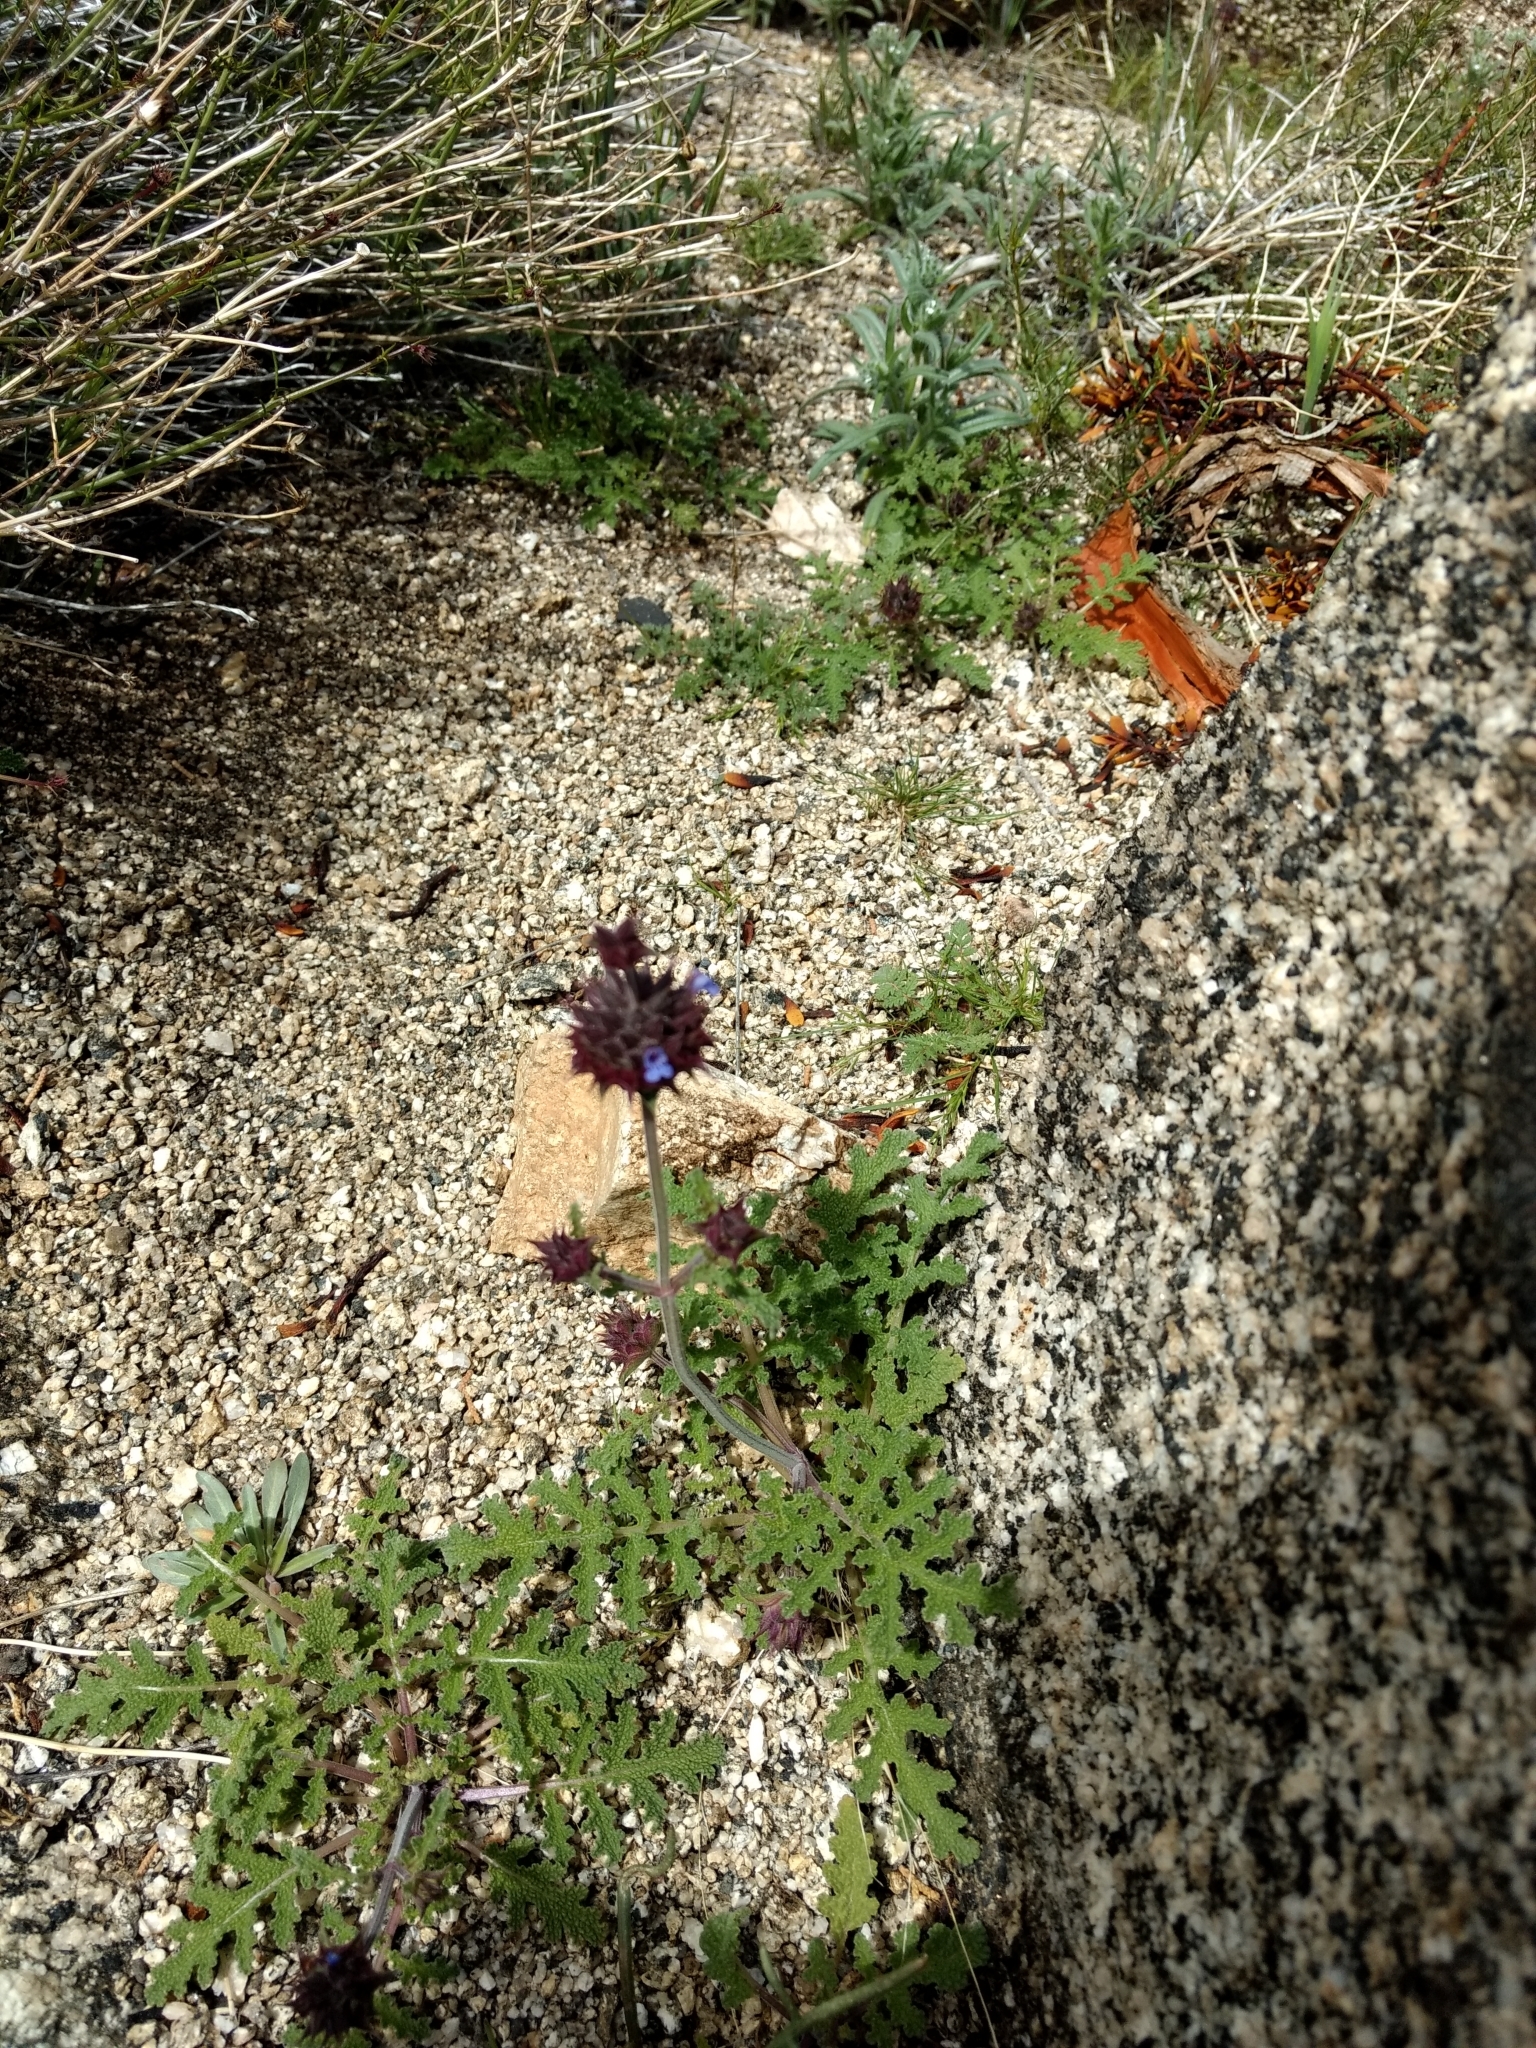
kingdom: Plantae
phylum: Tracheophyta
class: Magnoliopsida
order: Lamiales
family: Lamiaceae
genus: Salvia
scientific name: Salvia columbariae
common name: Chia
